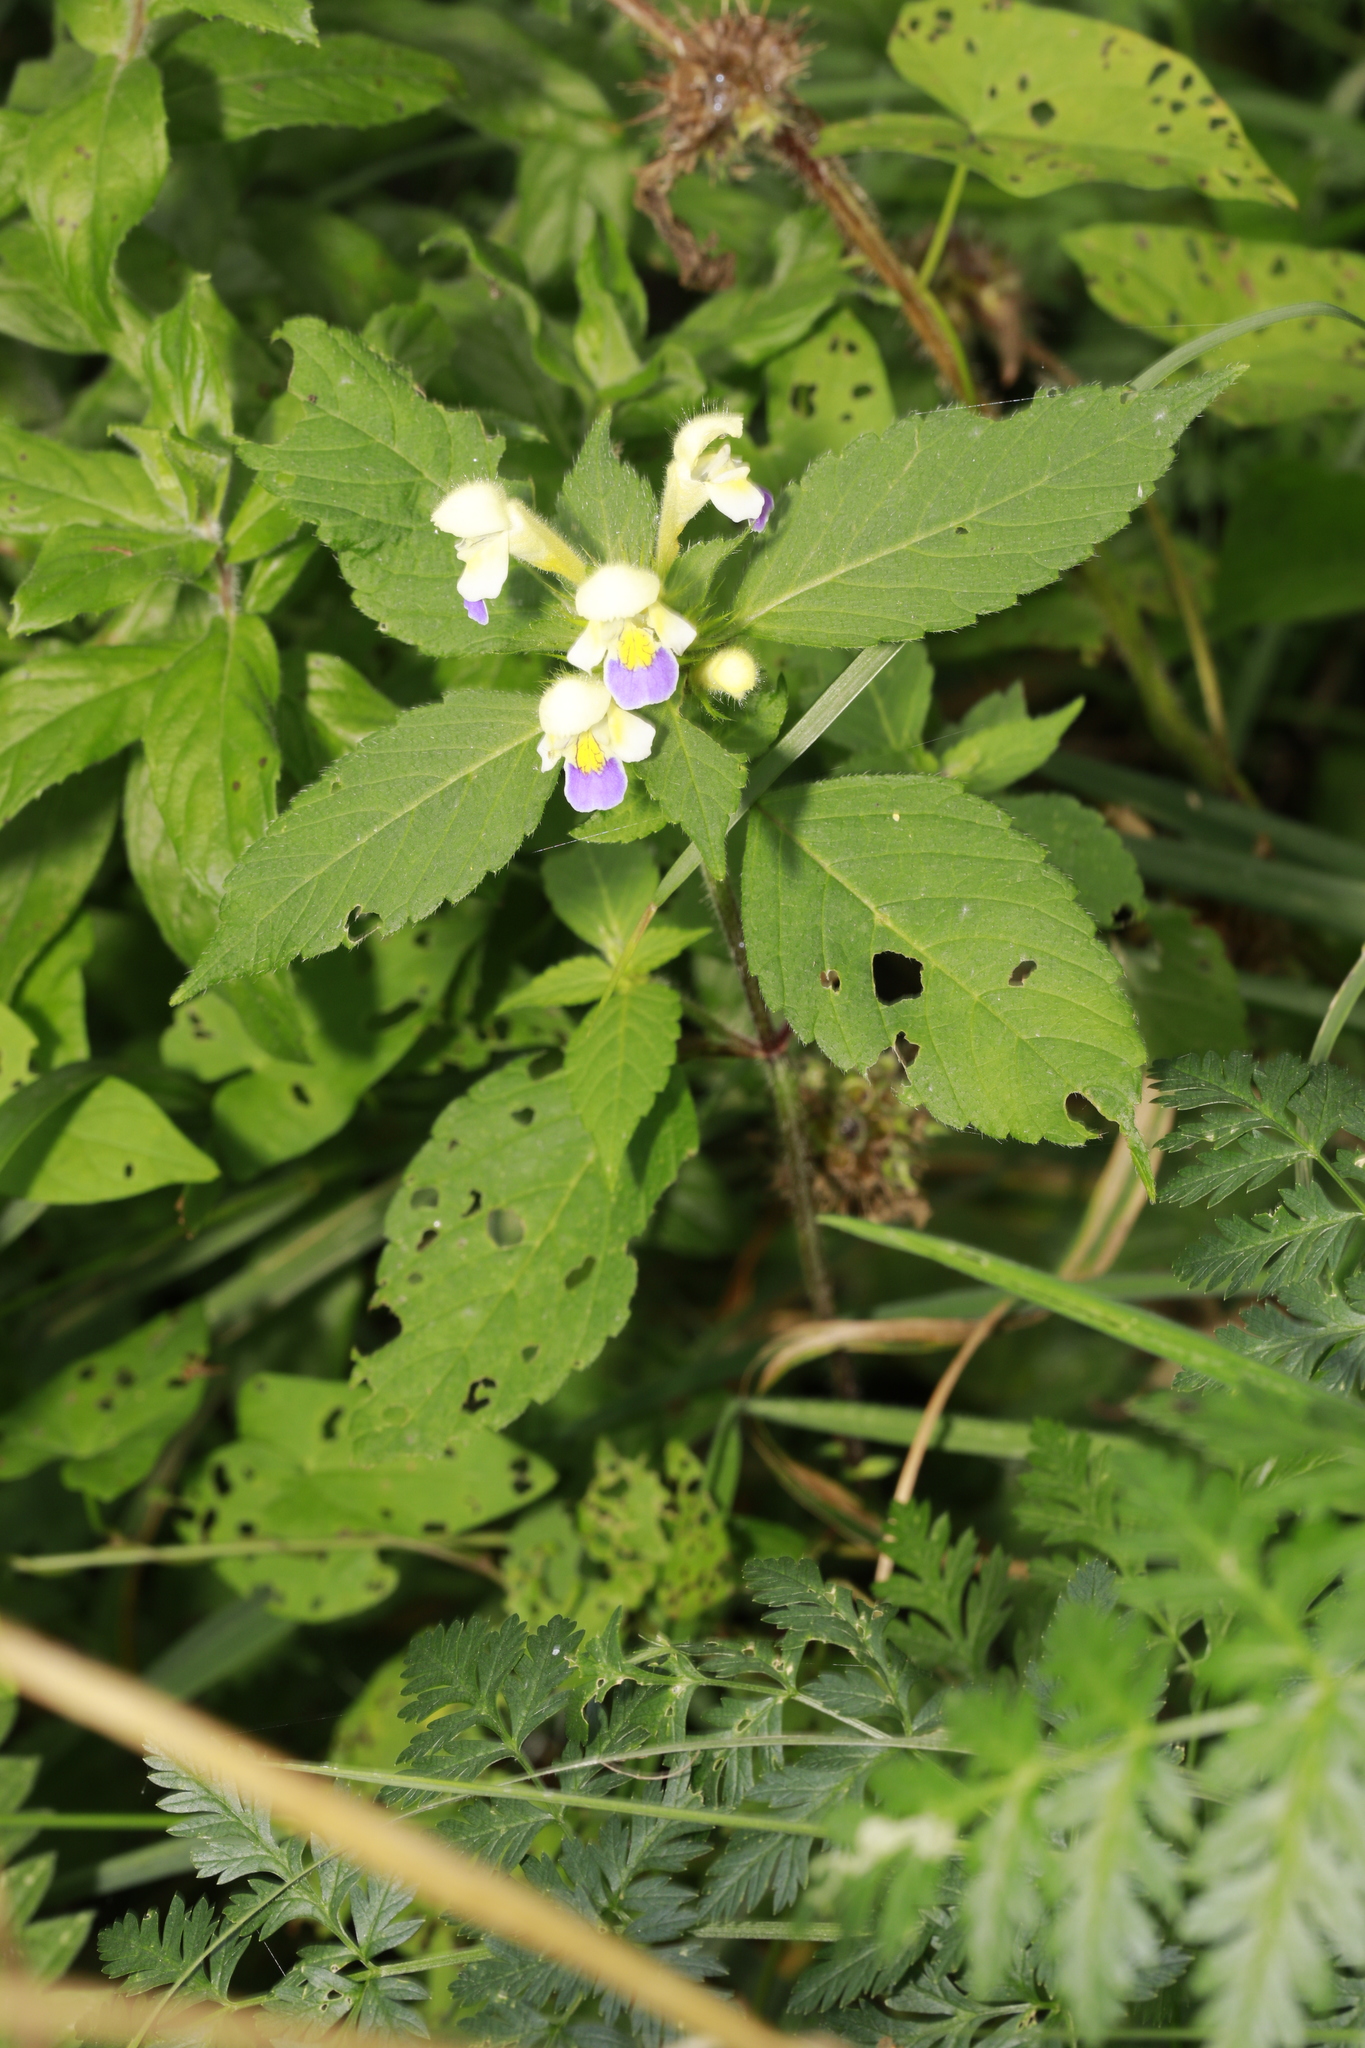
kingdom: Plantae
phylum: Tracheophyta
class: Magnoliopsida
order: Lamiales
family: Lamiaceae
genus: Galeopsis
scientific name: Galeopsis speciosa
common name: Large-flowered hemp-nettle
